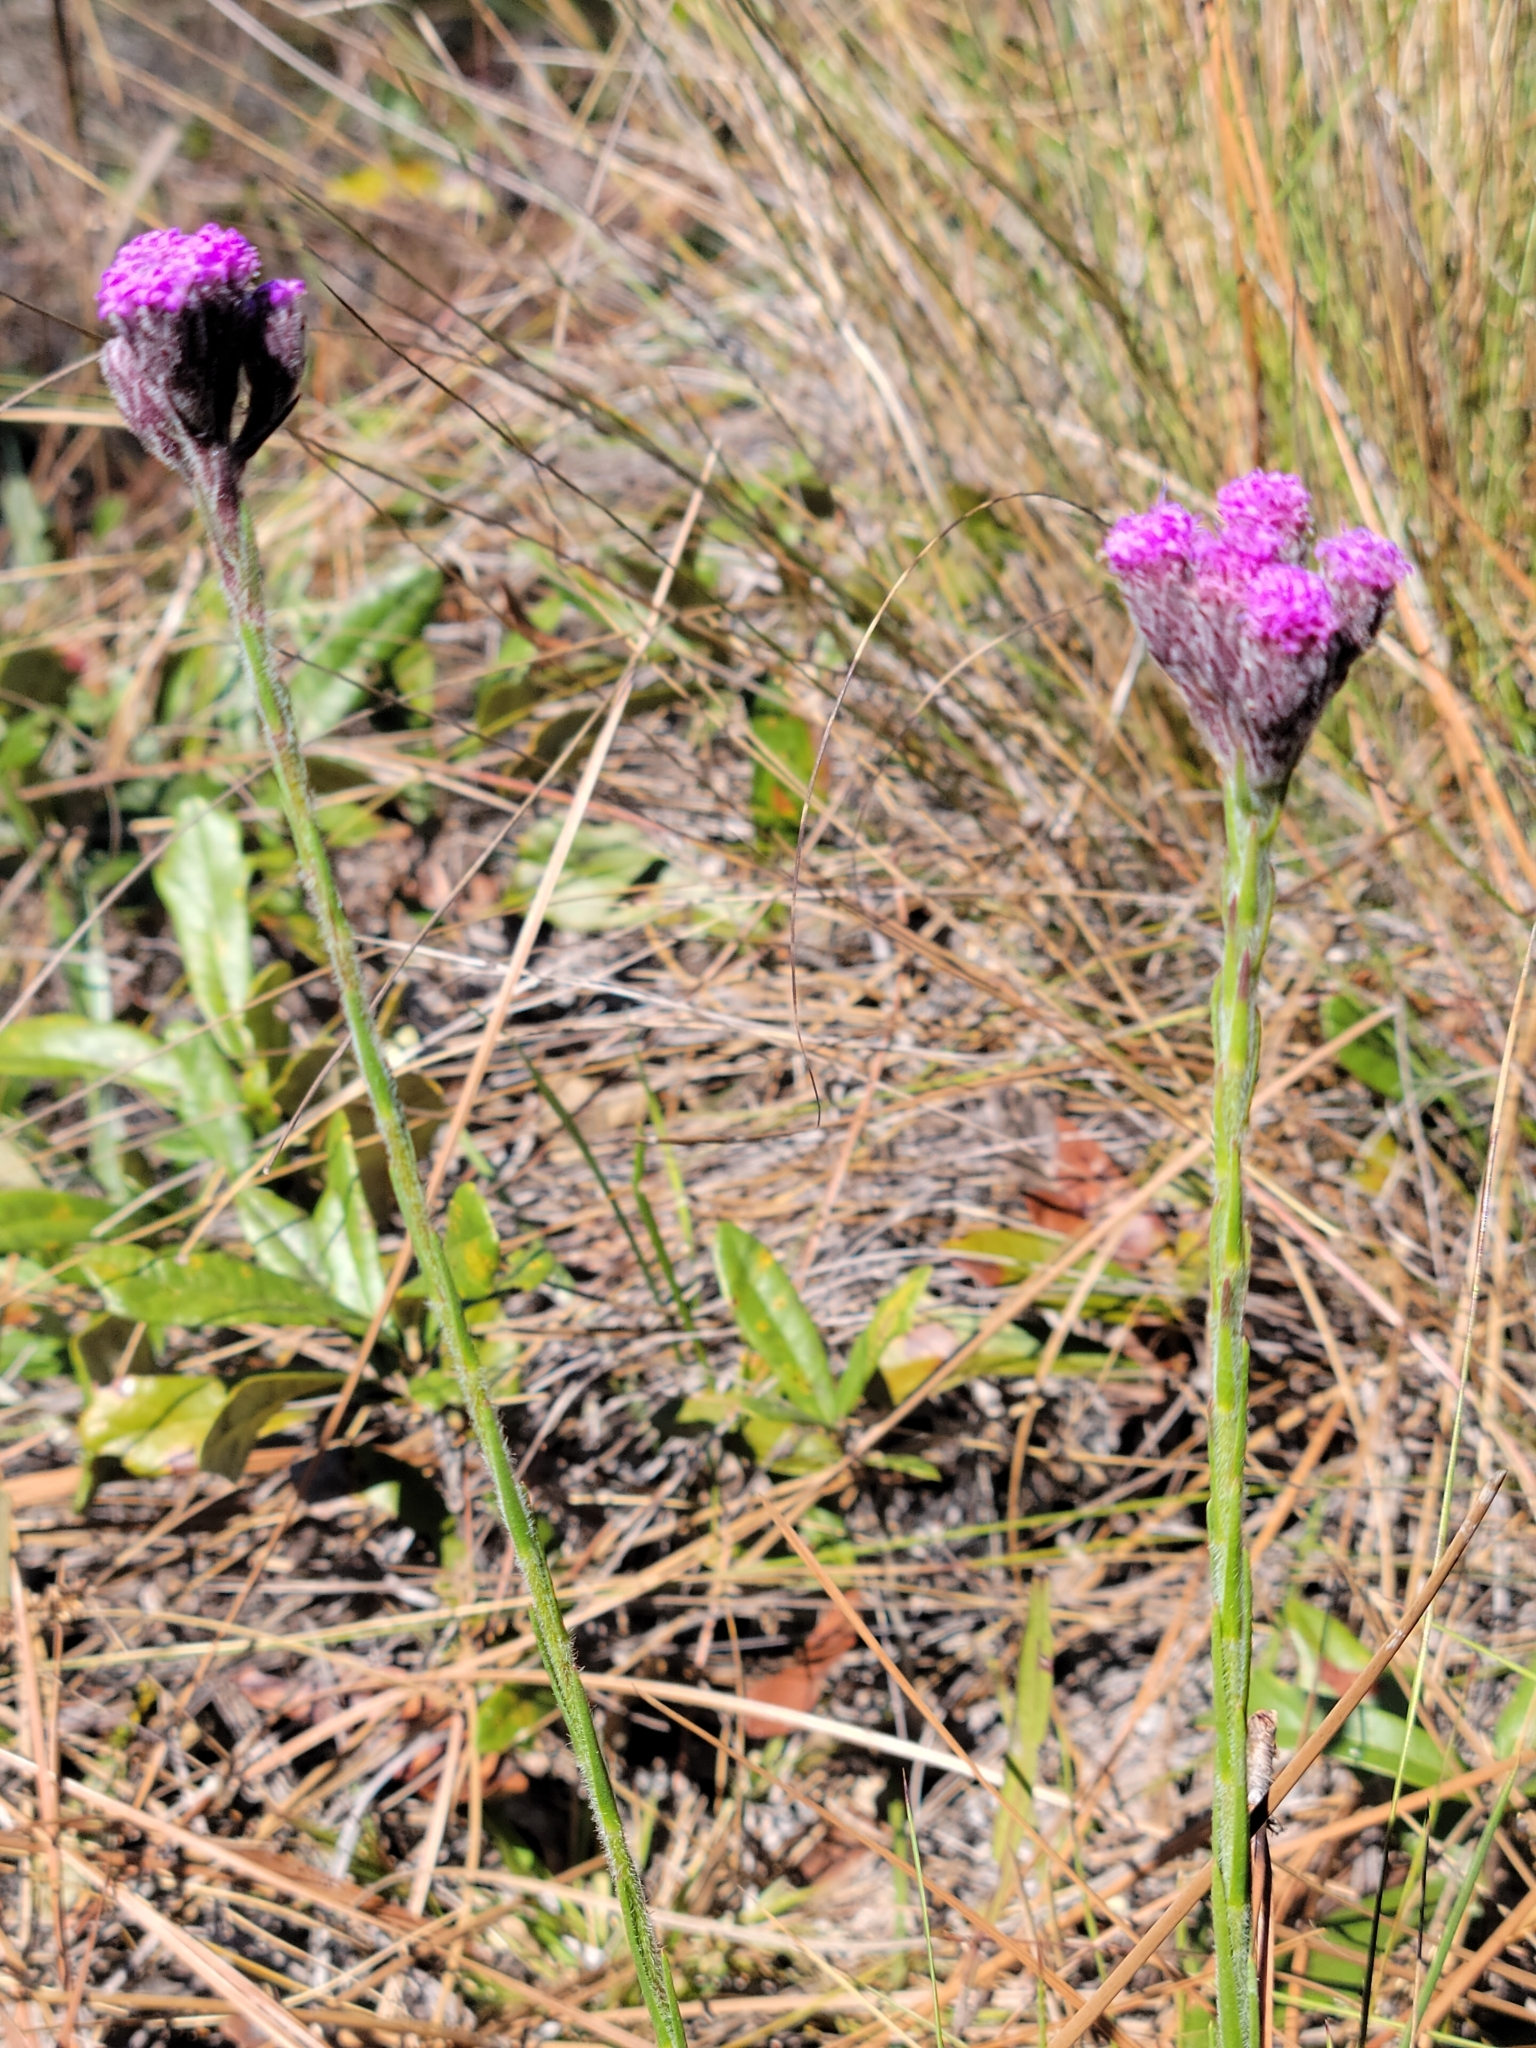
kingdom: Plantae
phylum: Tracheophyta
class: Magnoliopsida
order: Asterales
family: Asteraceae
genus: Carphephorus
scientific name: Carphephorus pseudoliatris
